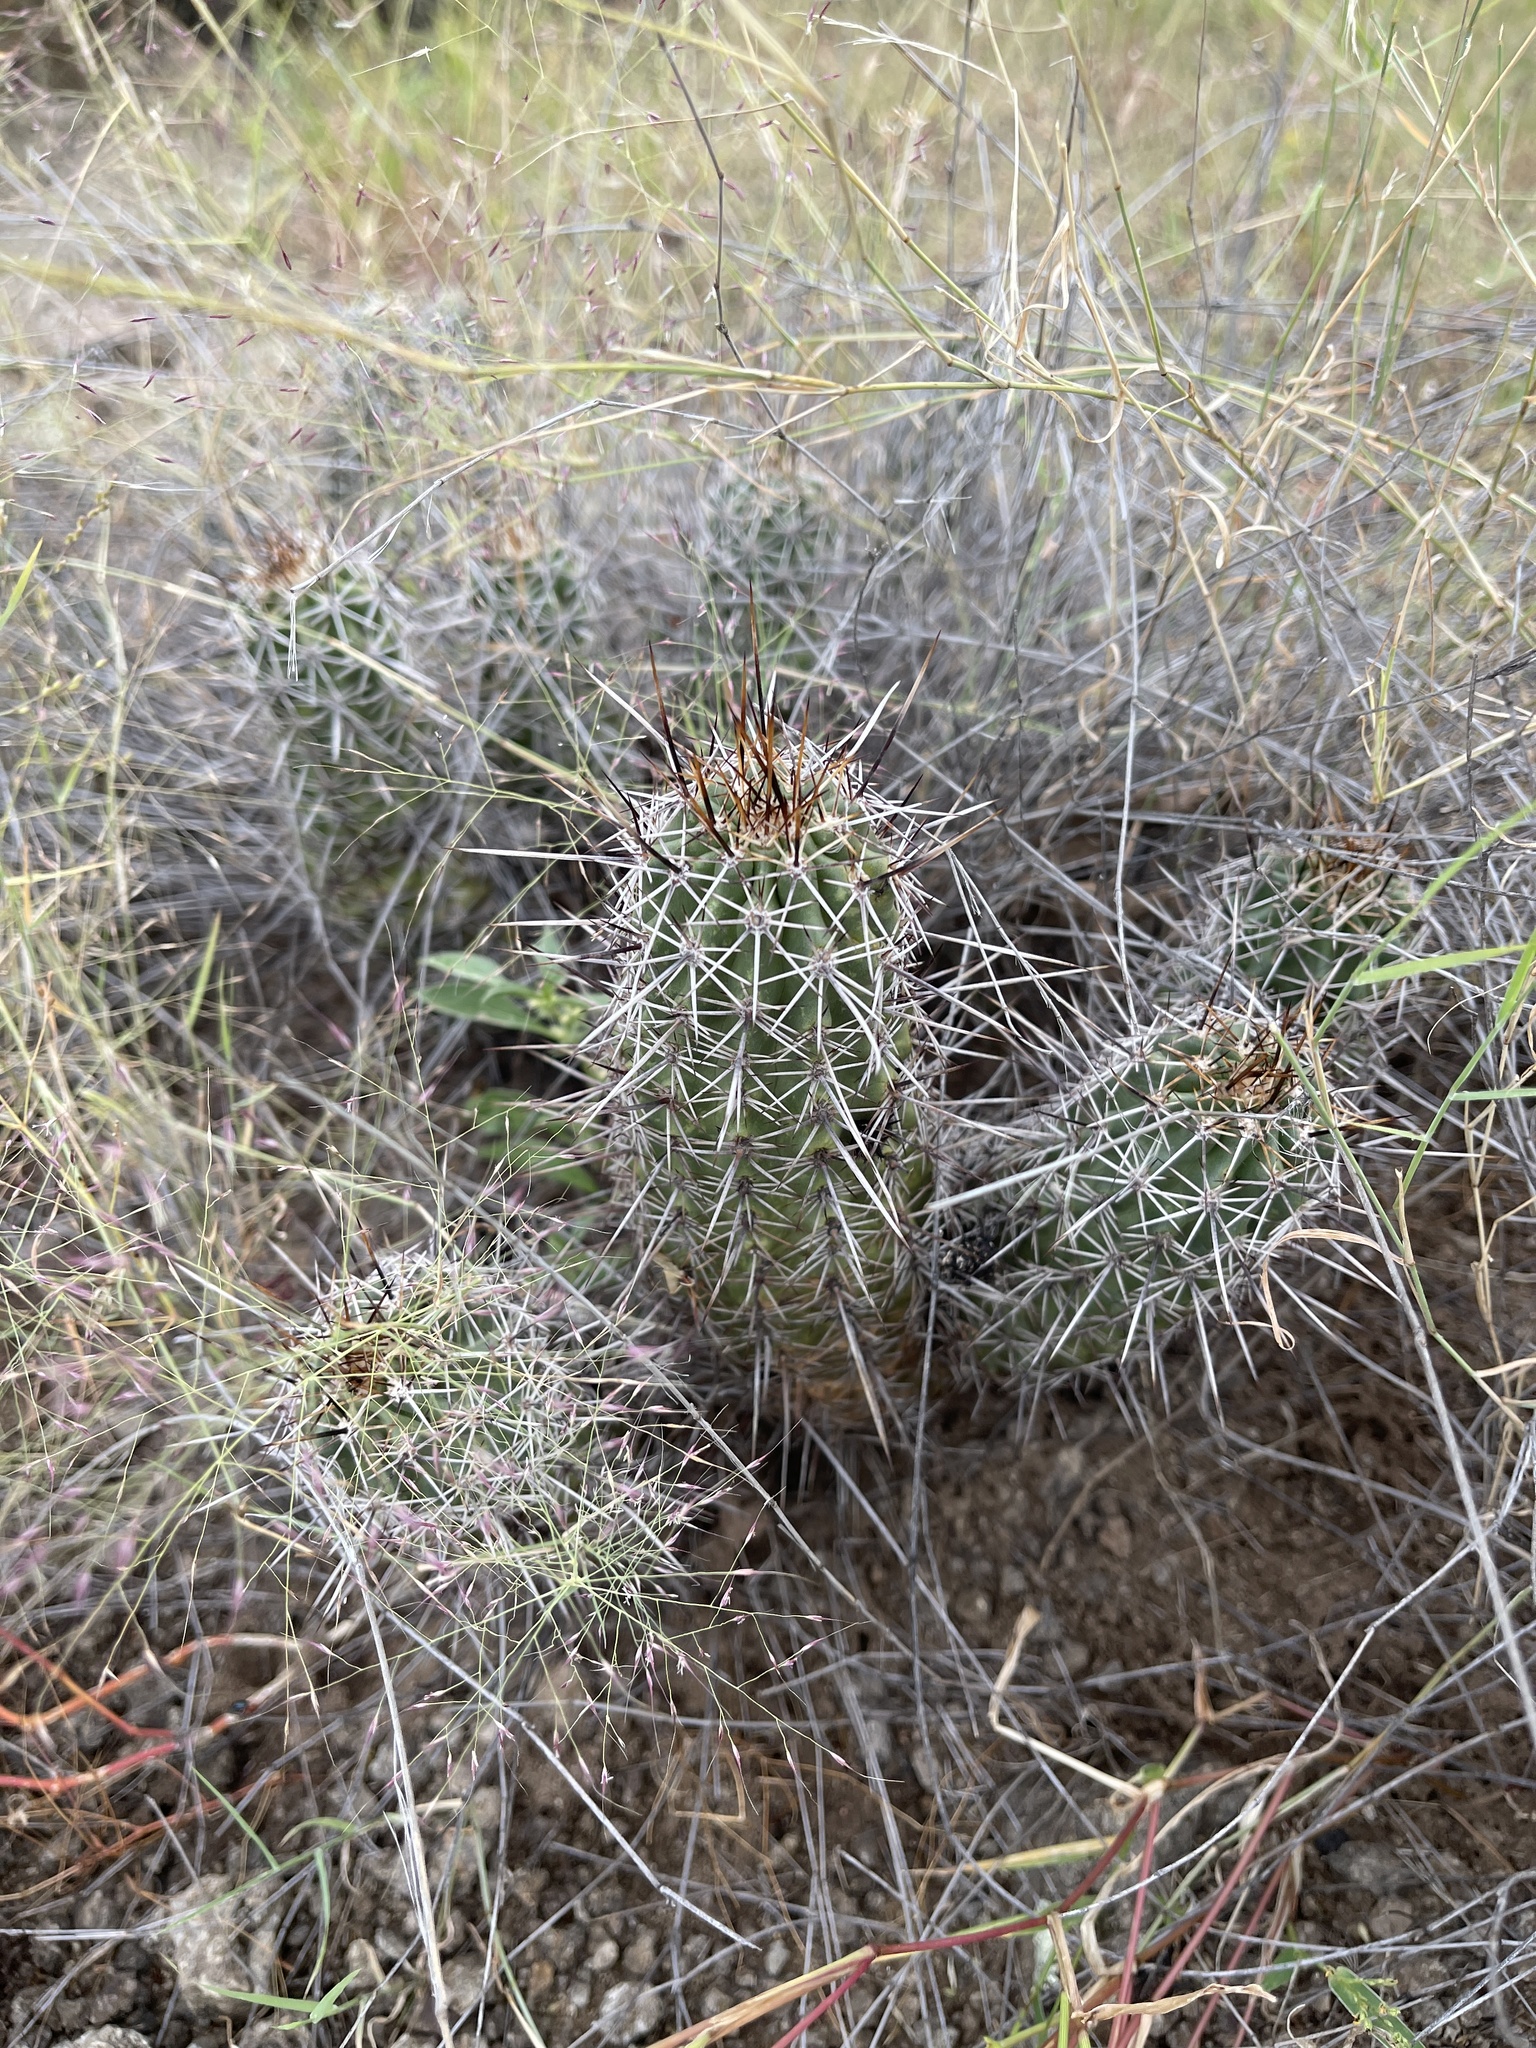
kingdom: Plantae
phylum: Tracheophyta
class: Magnoliopsida
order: Caryophyllales
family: Cactaceae
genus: Echinocereus
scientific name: Echinocereus fasciculatus
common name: Bundle hedgehog
